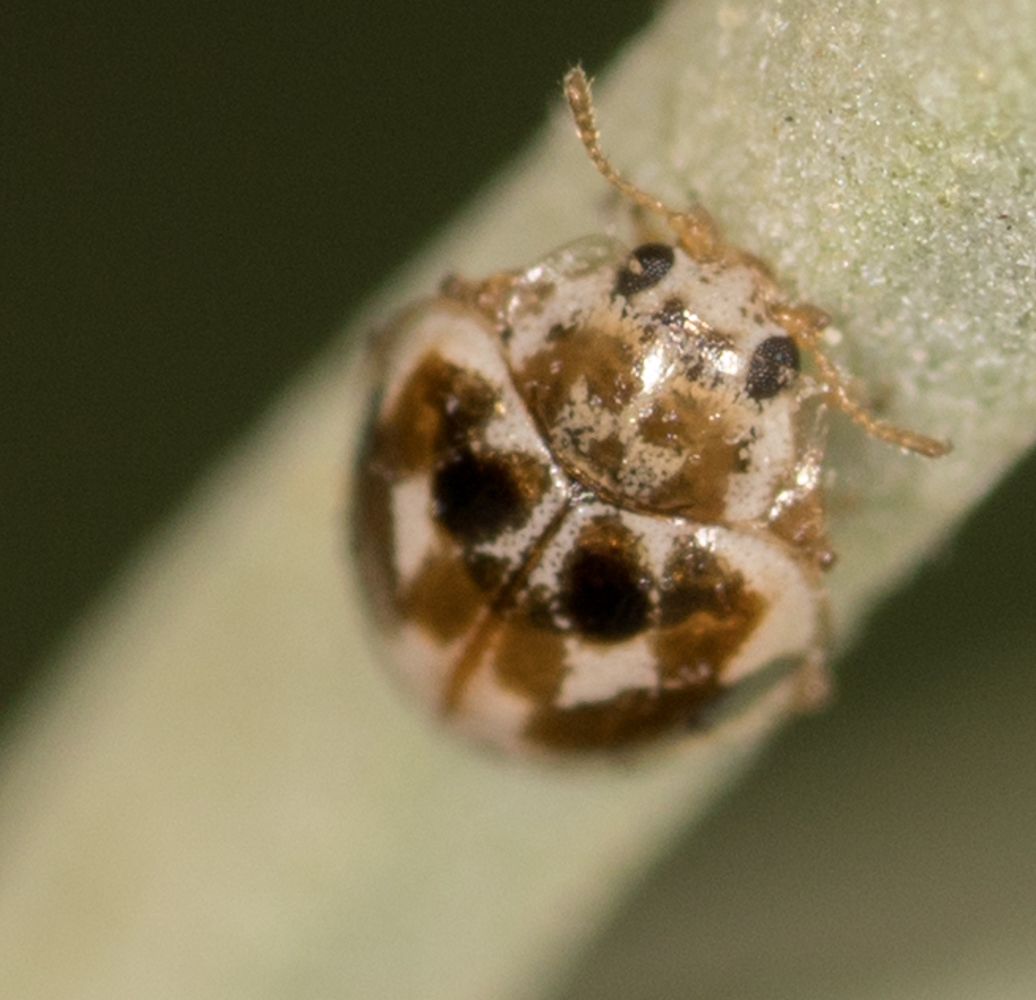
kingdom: Animalia
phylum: Arthropoda
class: Insecta
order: Coleoptera
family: Coccinellidae
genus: Psyllobora
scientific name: Psyllobora vigintimaculata
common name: Ladybird beetle
